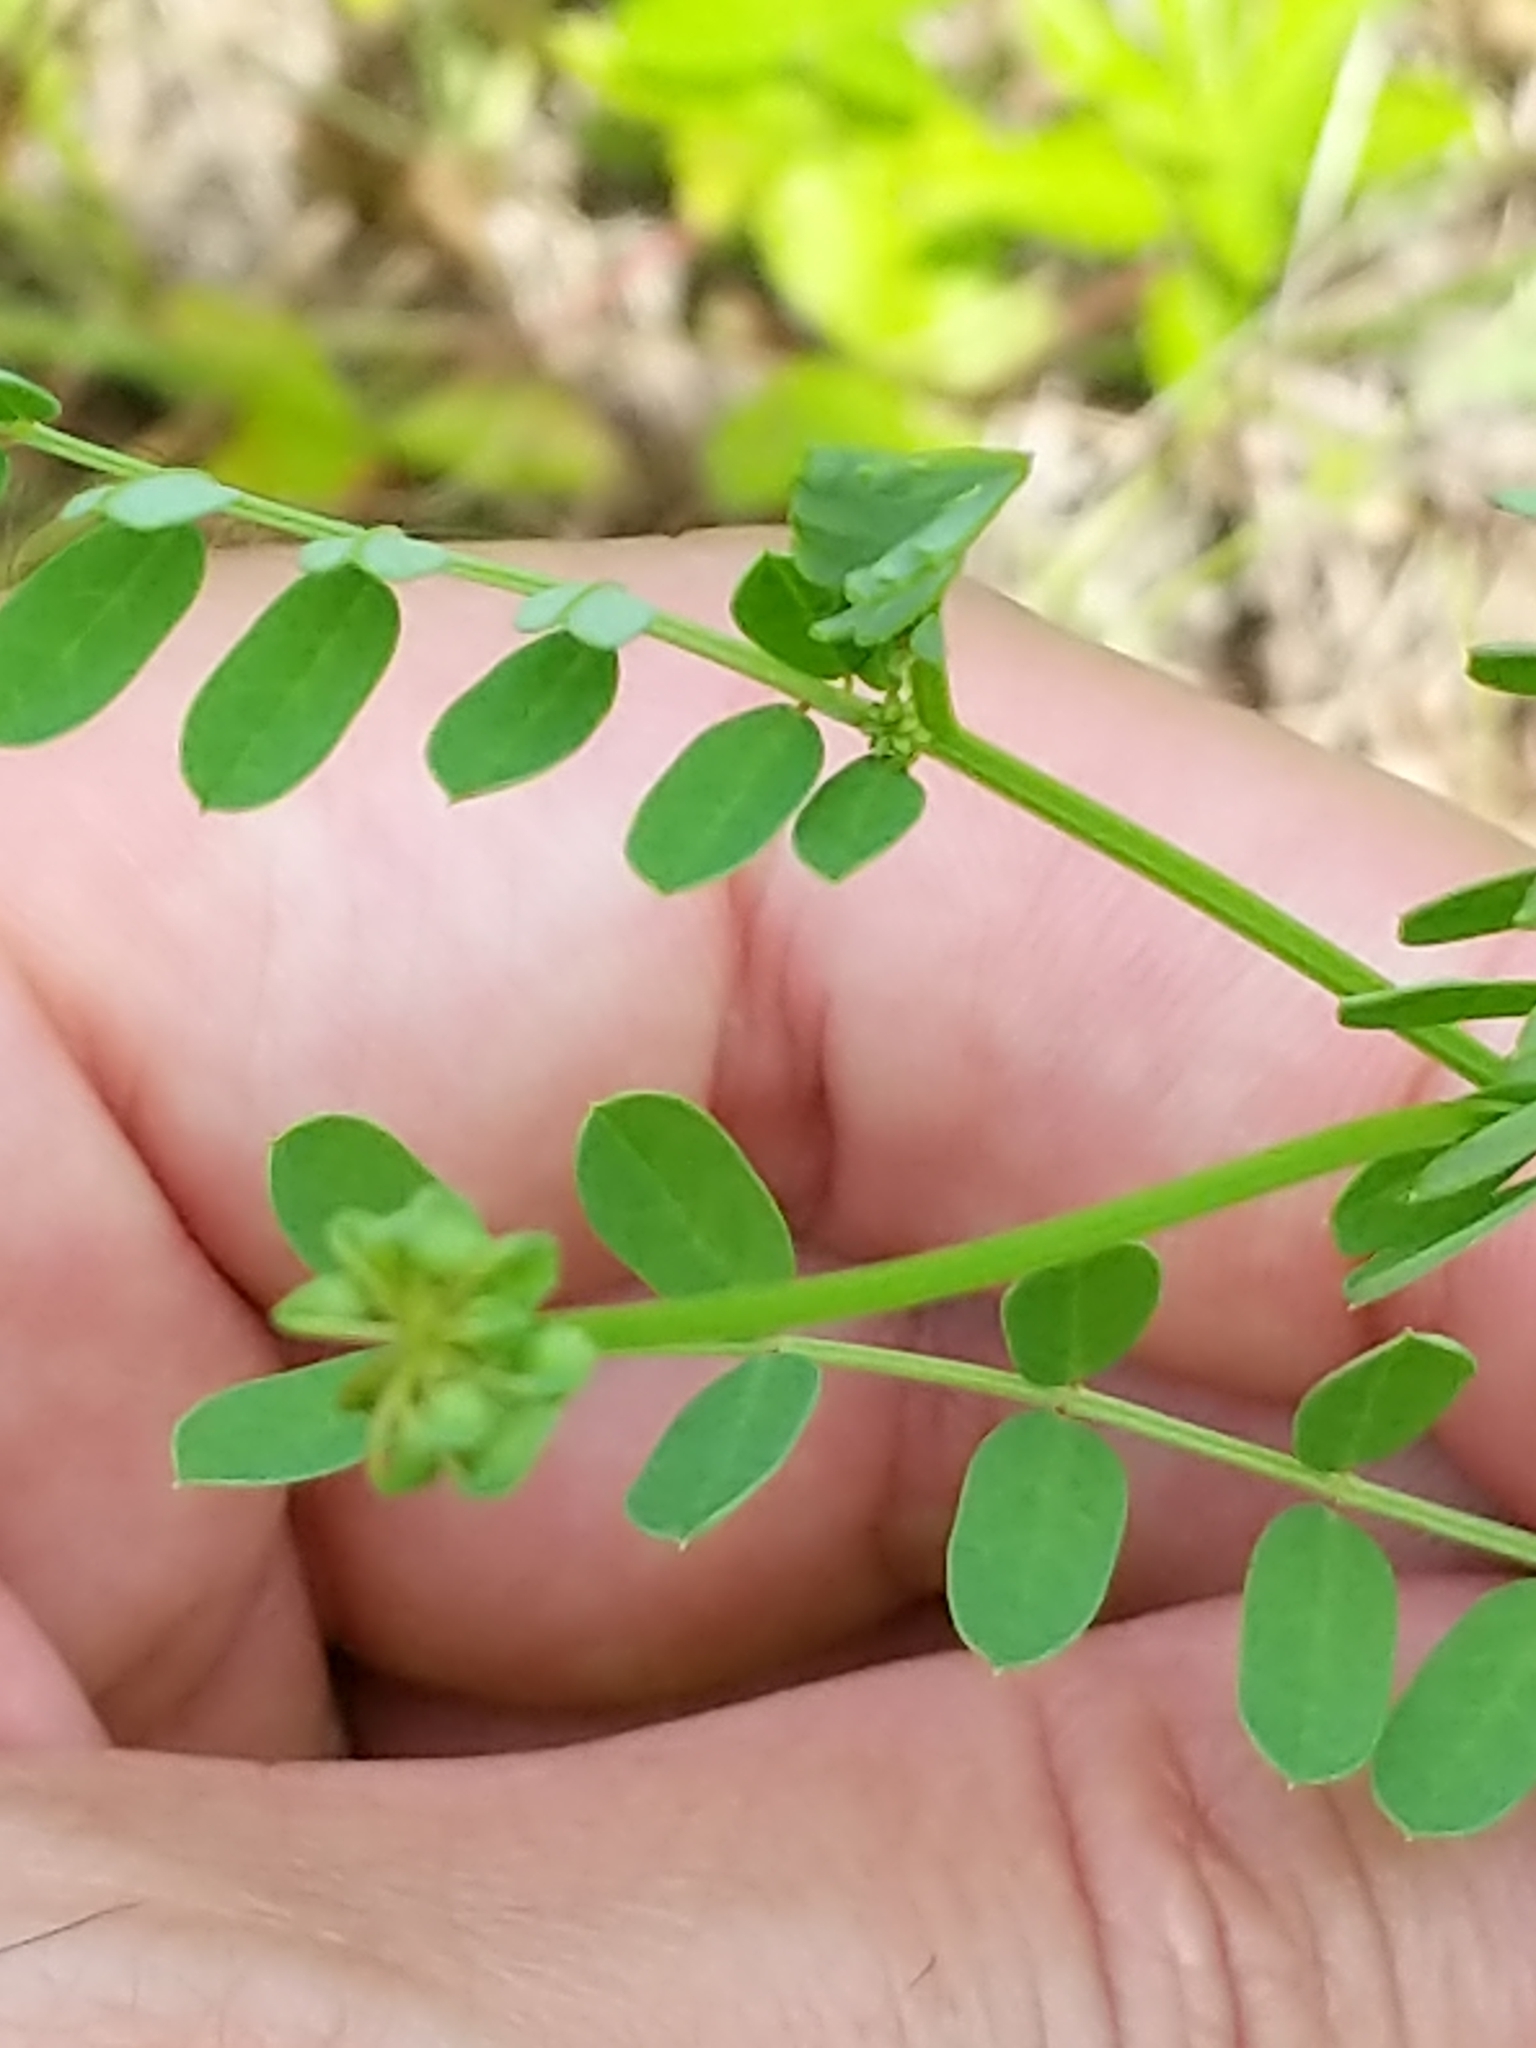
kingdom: Plantae
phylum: Tracheophyta
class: Magnoliopsida
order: Fabales
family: Fabaceae
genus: Coronilla
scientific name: Coronilla varia
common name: Crownvetch
